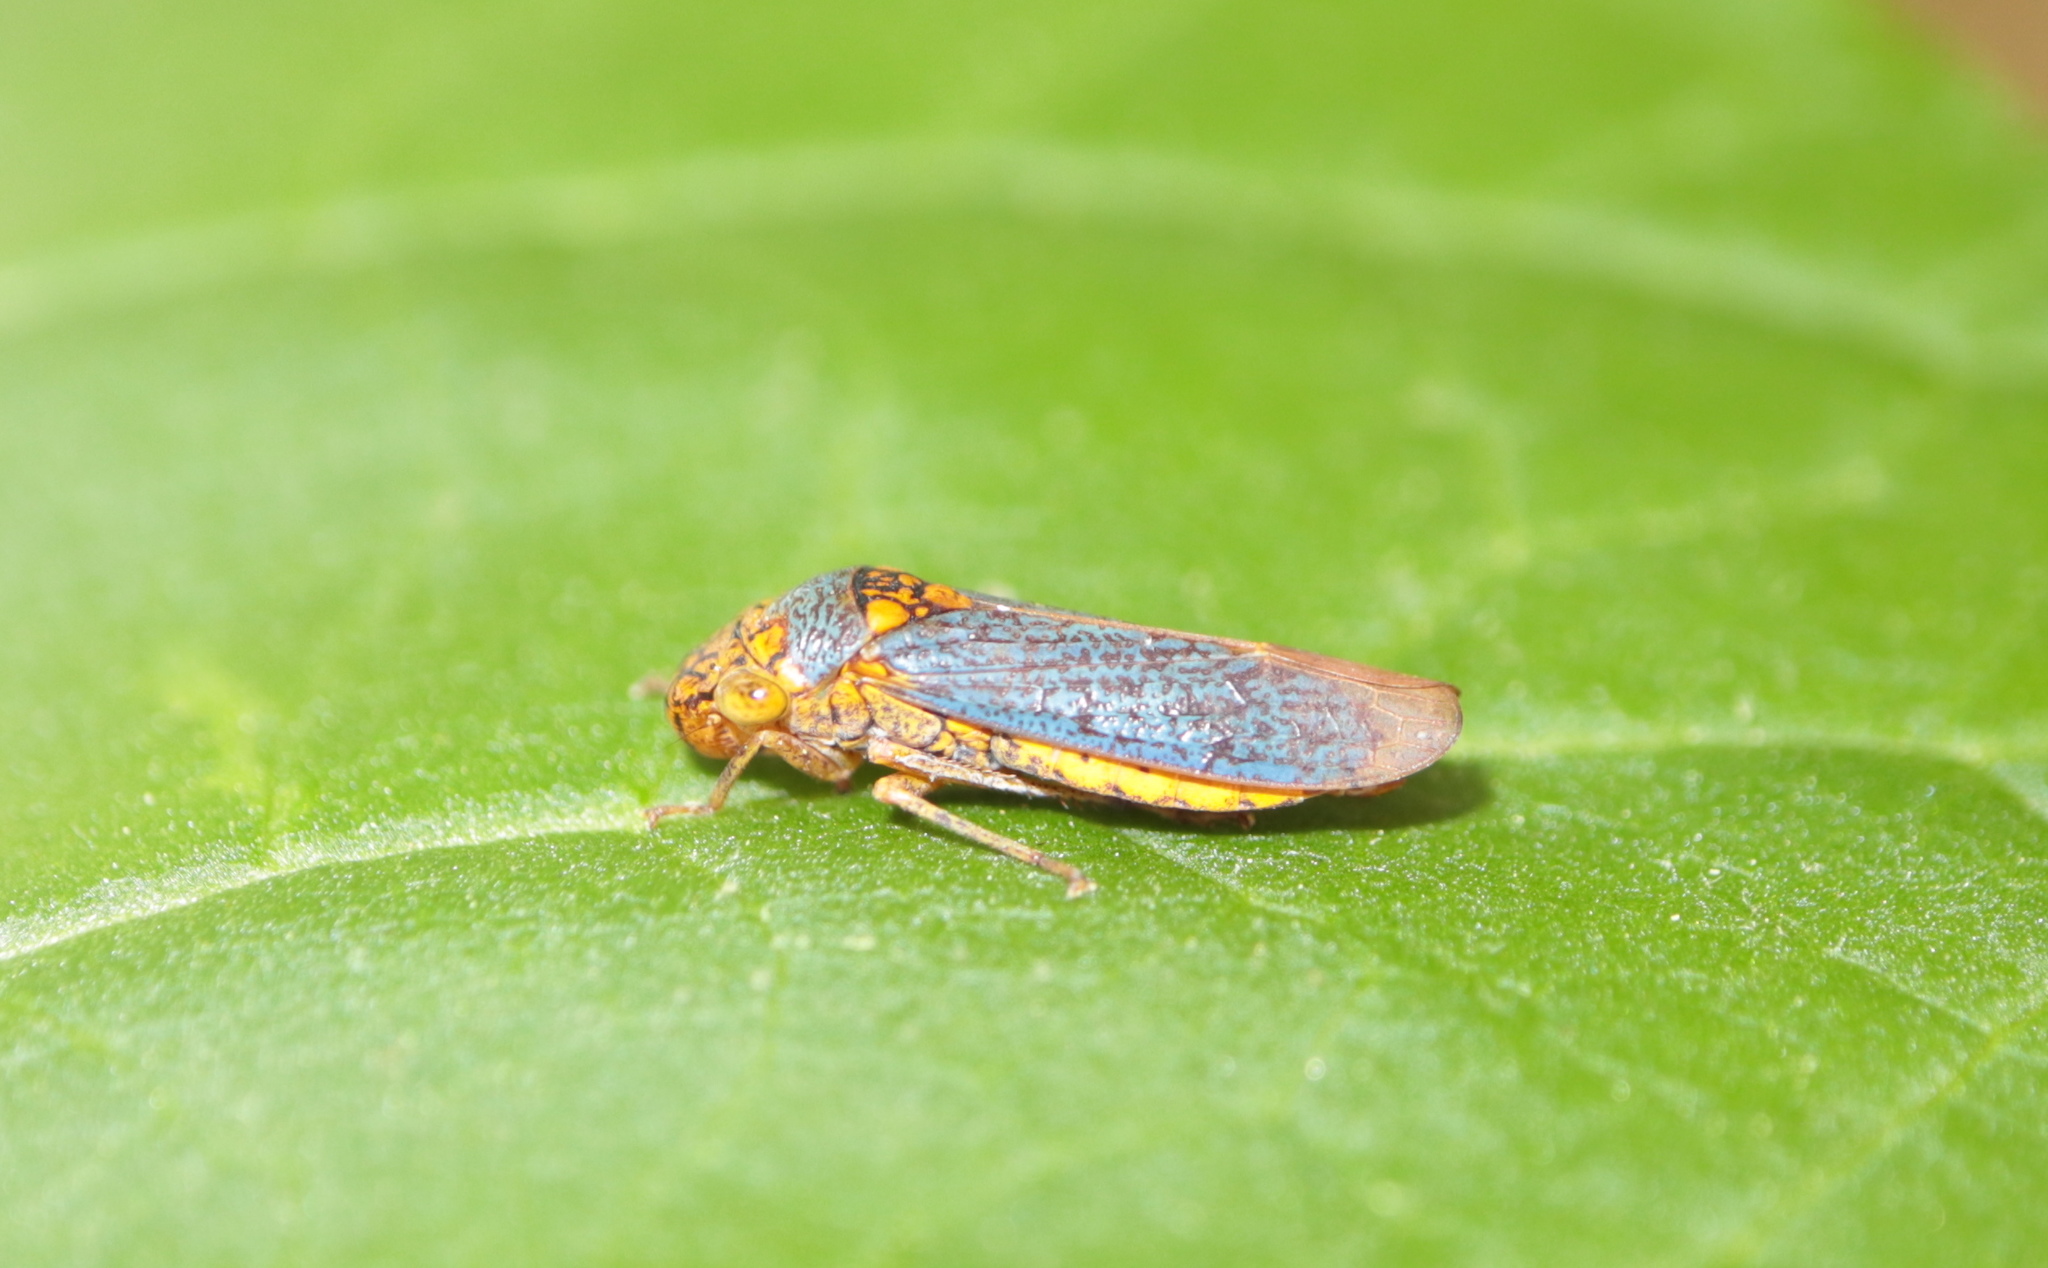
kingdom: Animalia
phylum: Arthropoda
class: Insecta
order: Hemiptera
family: Cicadellidae
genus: Oncometopia
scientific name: Oncometopia orbona
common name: Broad-headed sharpshooter
